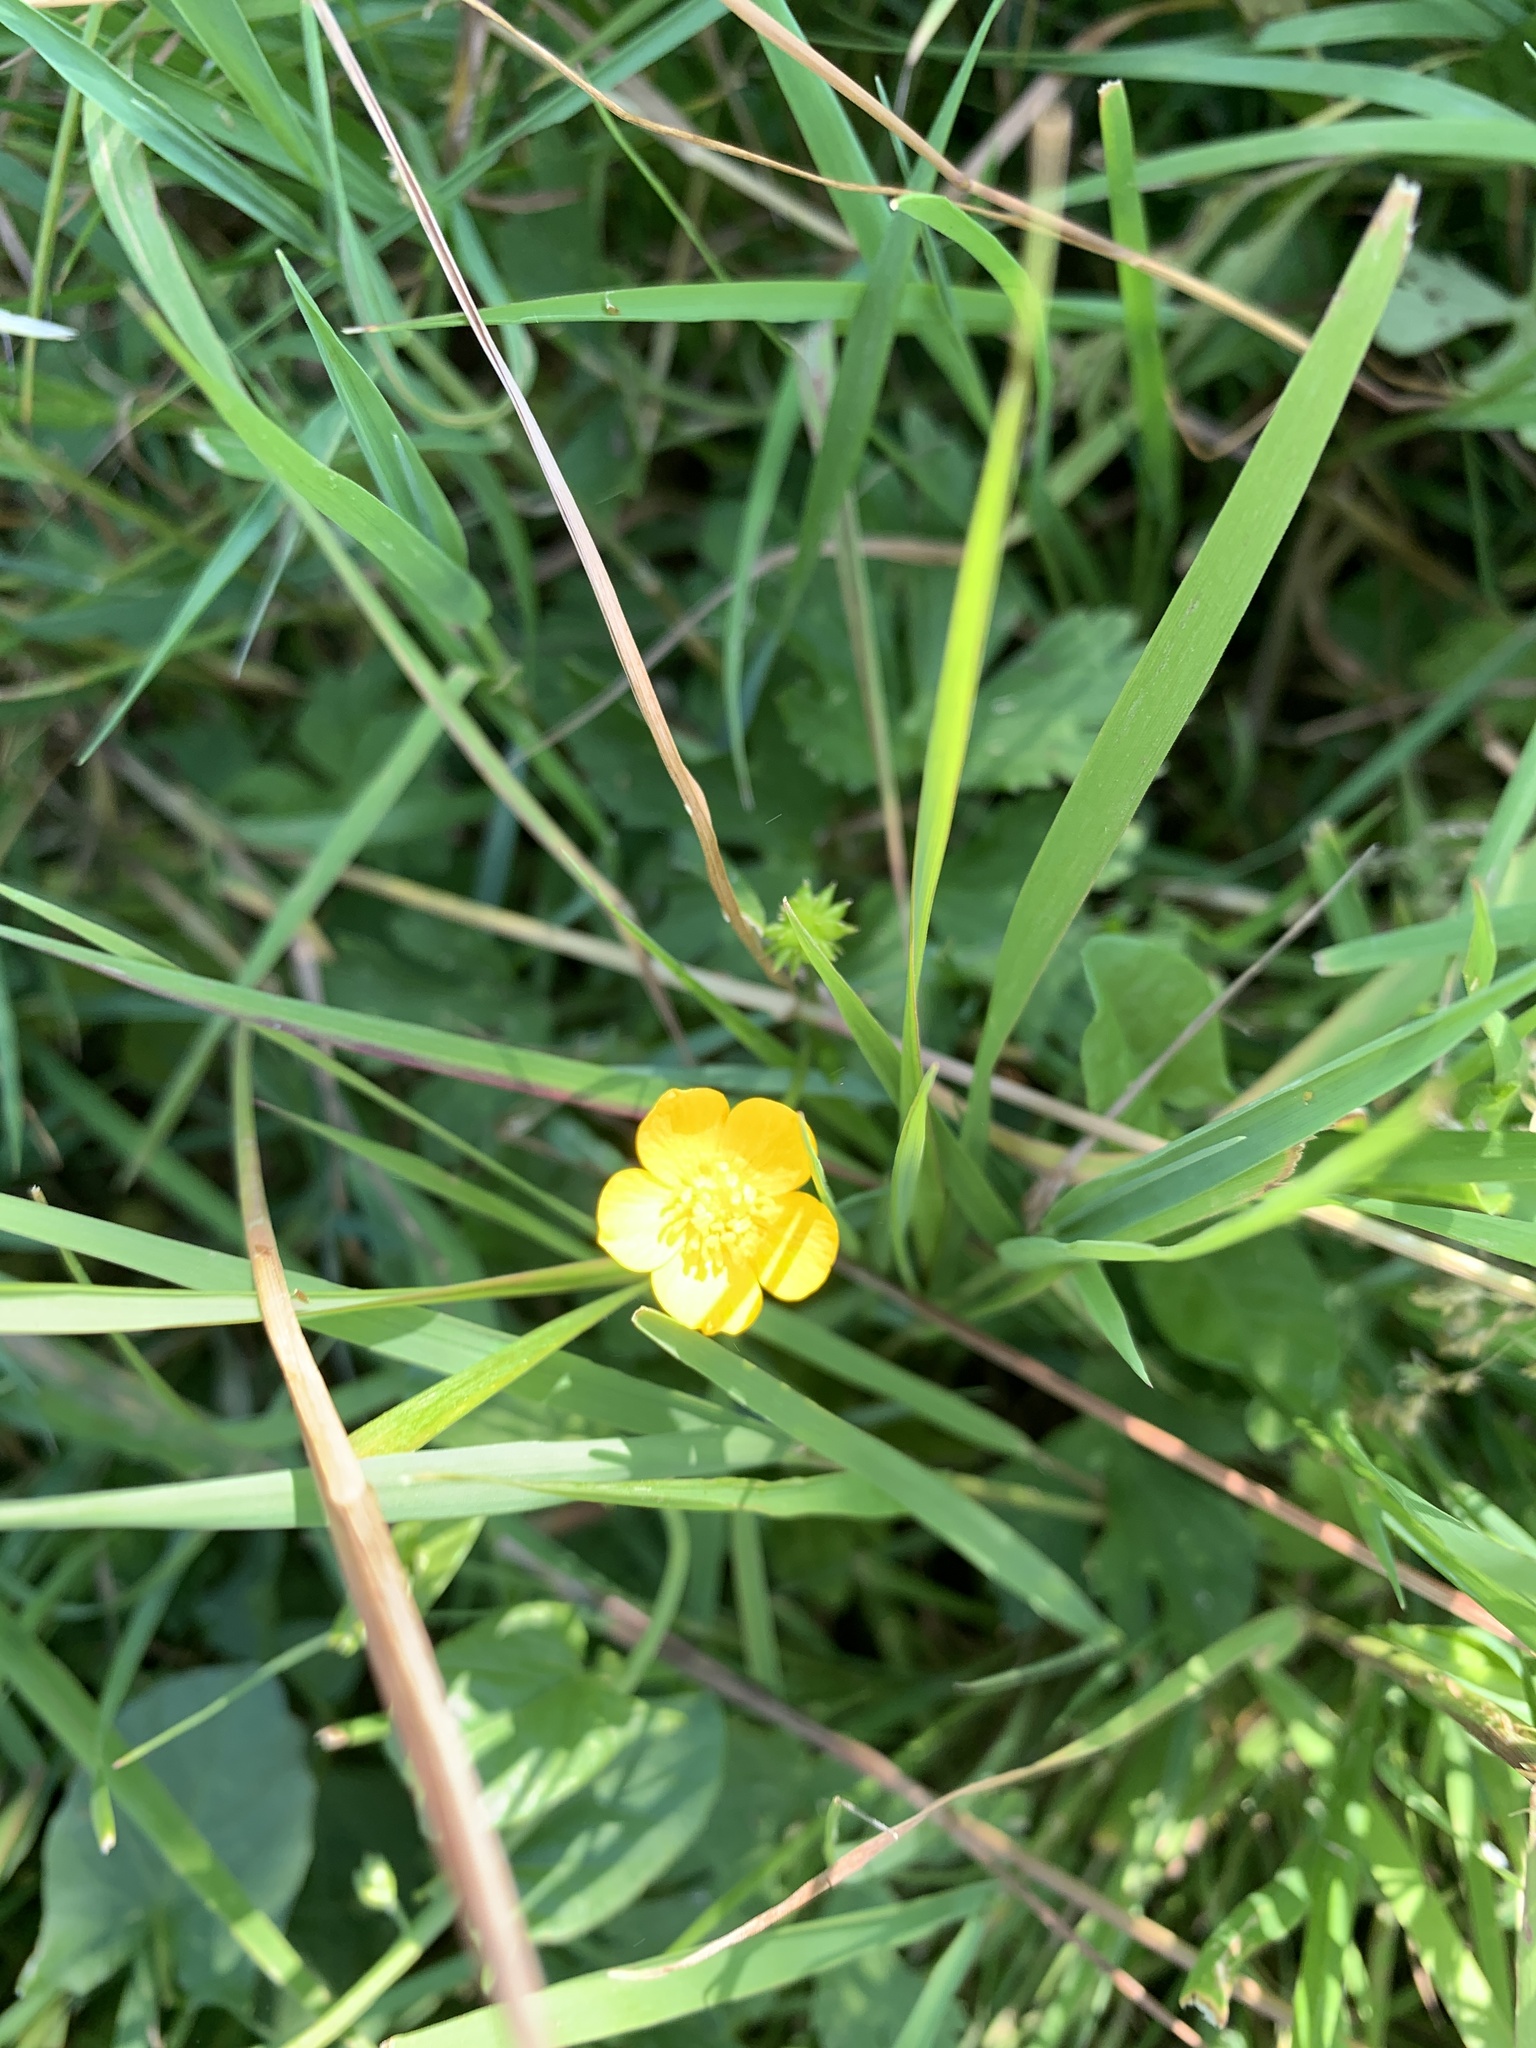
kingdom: Plantae
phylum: Tracheophyta
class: Magnoliopsida
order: Ranunculales
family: Ranunculaceae
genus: Ranunculus
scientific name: Ranunculus acris
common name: Meadow buttercup
